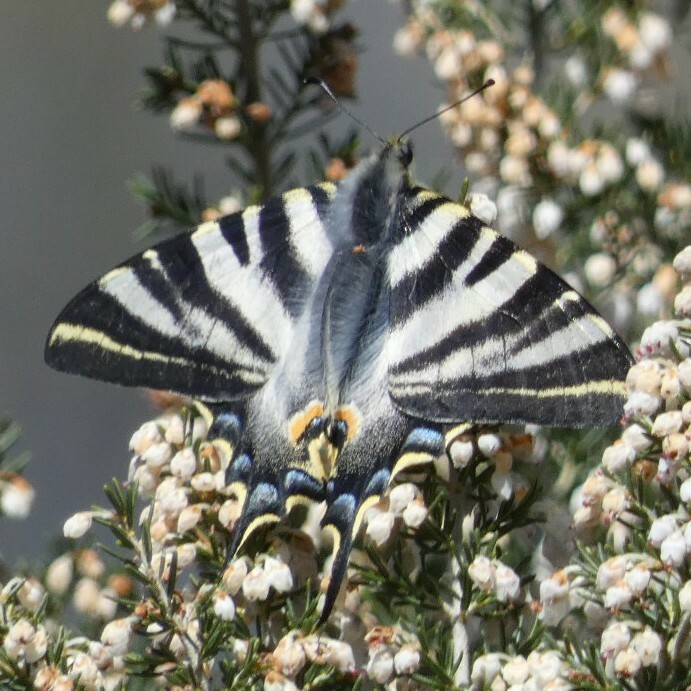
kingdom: Animalia
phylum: Arthropoda
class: Insecta
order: Lepidoptera
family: Papilionidae
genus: Iphiclides
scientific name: Iphiclides feisthamelii
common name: Iberian scarce swallowtail
